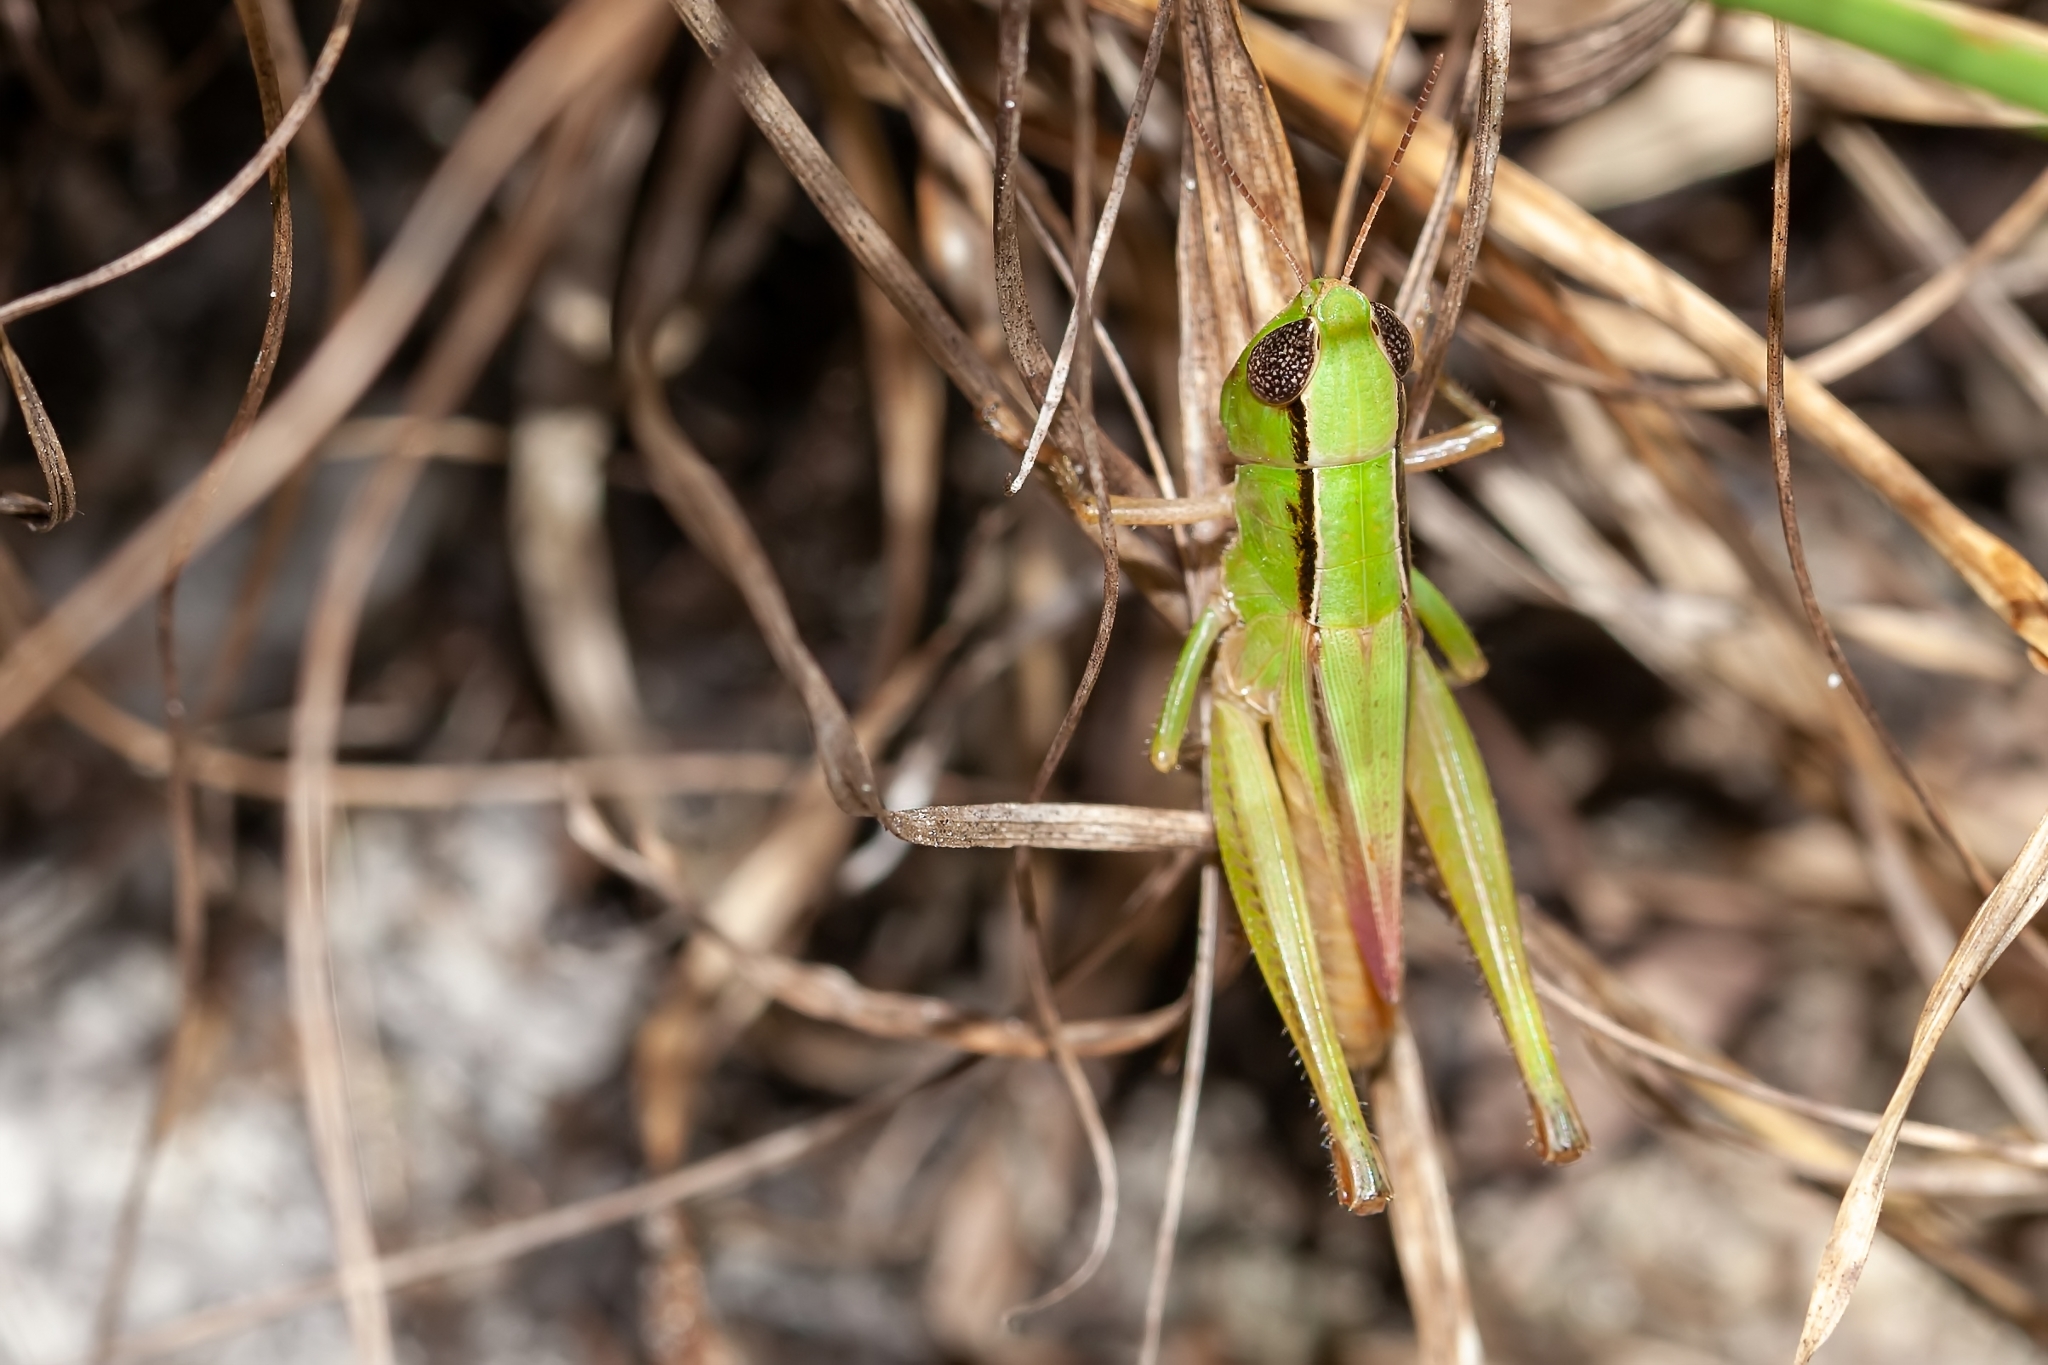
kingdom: Animalia
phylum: Arthropoda
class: Insecta
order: Orthoptera
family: Acrididae
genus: Dichromorpha
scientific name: Dichromorpha elegans
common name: Elegant grasshopper
